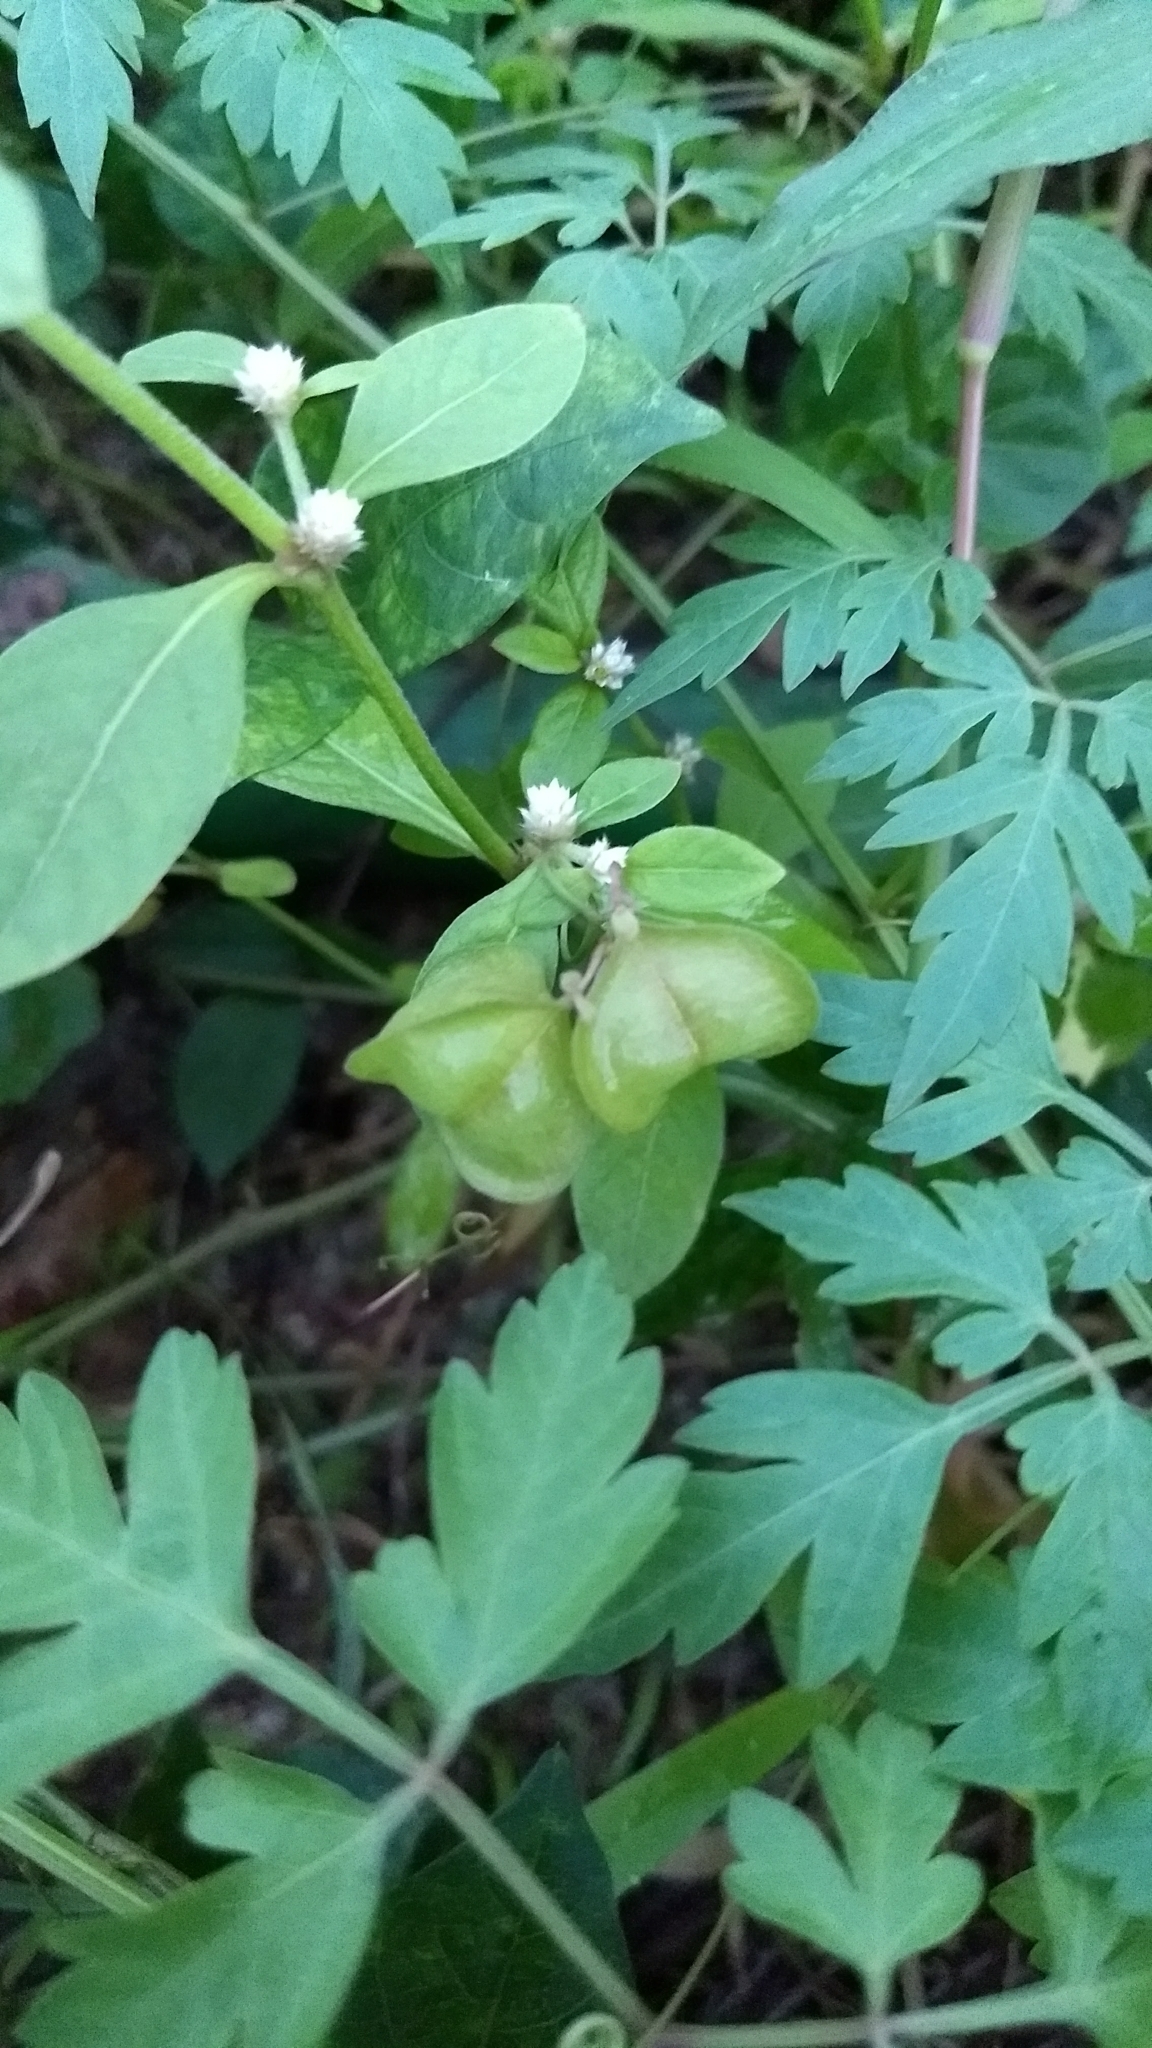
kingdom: Plantae
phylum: Tracheophyta
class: Magnoliopsida
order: Sapindales
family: Sapindaceae
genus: Cardiospermum
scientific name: Cardiospermum halicacabum
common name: Balloon vine
